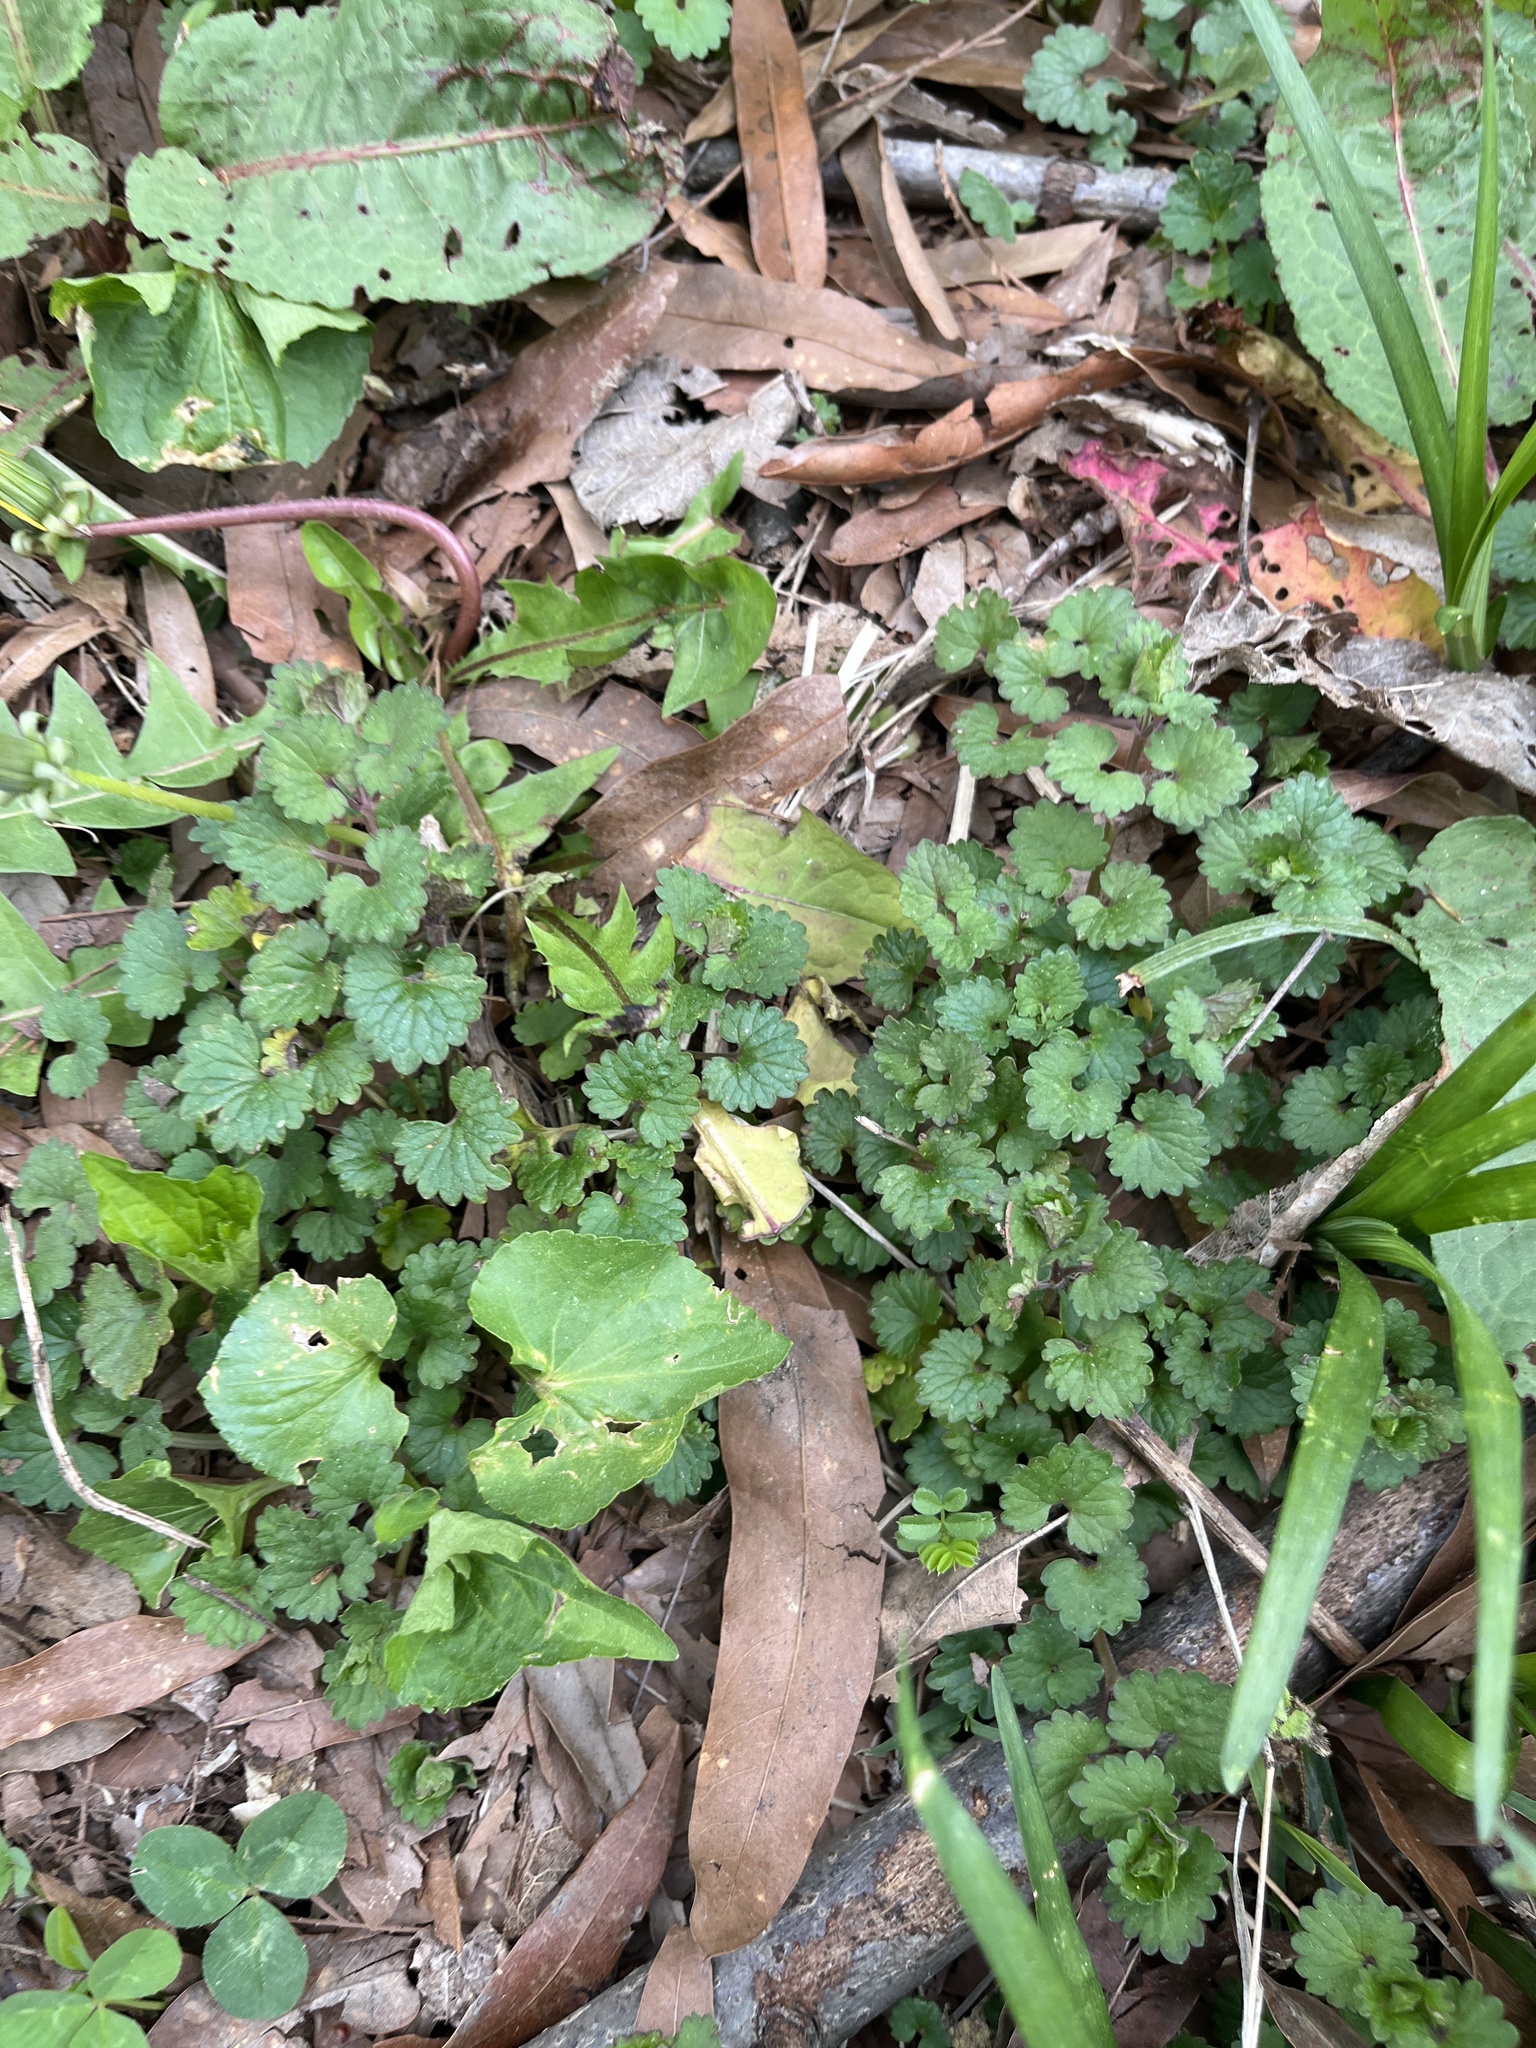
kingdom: Plantae
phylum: Tracheophyta
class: Magnoliopsida
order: Lamiales
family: Lamiaceae
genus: Glechoma
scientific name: Glechoma hederacea
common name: Ground ivy
